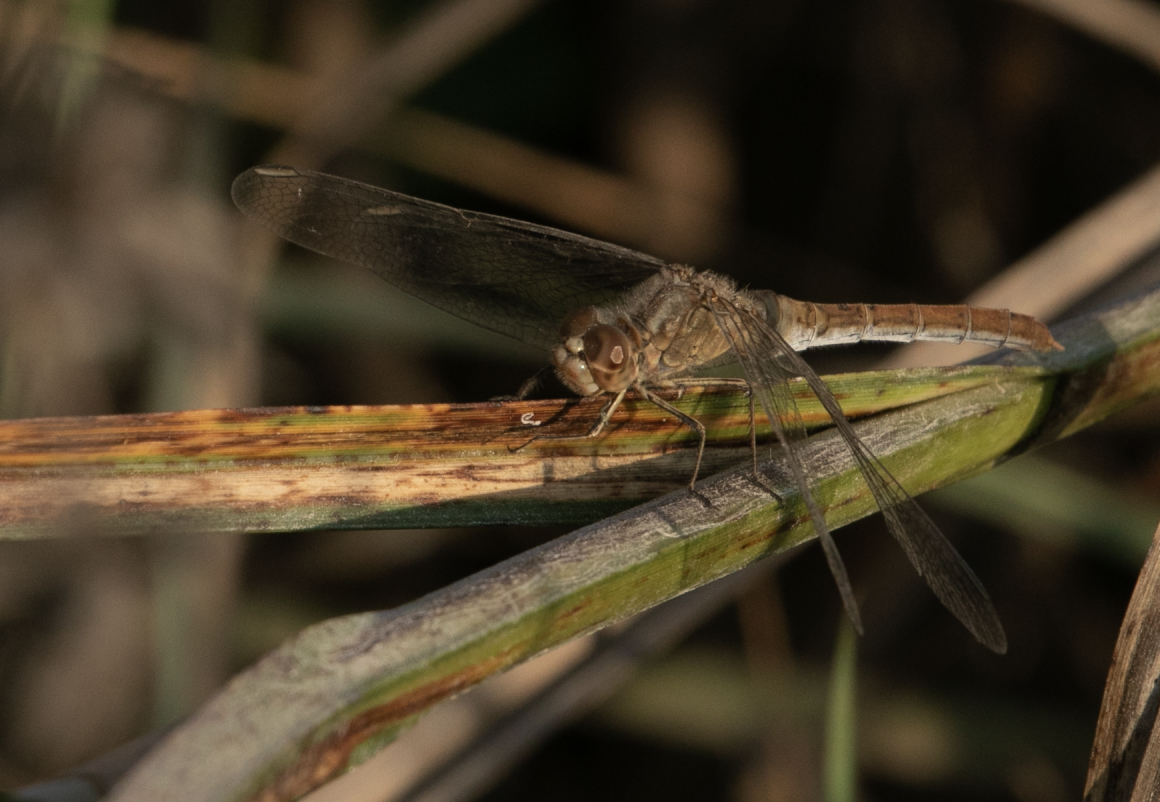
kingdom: Animalia
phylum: Arthropoda
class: Insecta
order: Odonata
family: Libellulidae
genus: Sympetrum
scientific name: Sympetrum meridionale
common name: Southern darter
